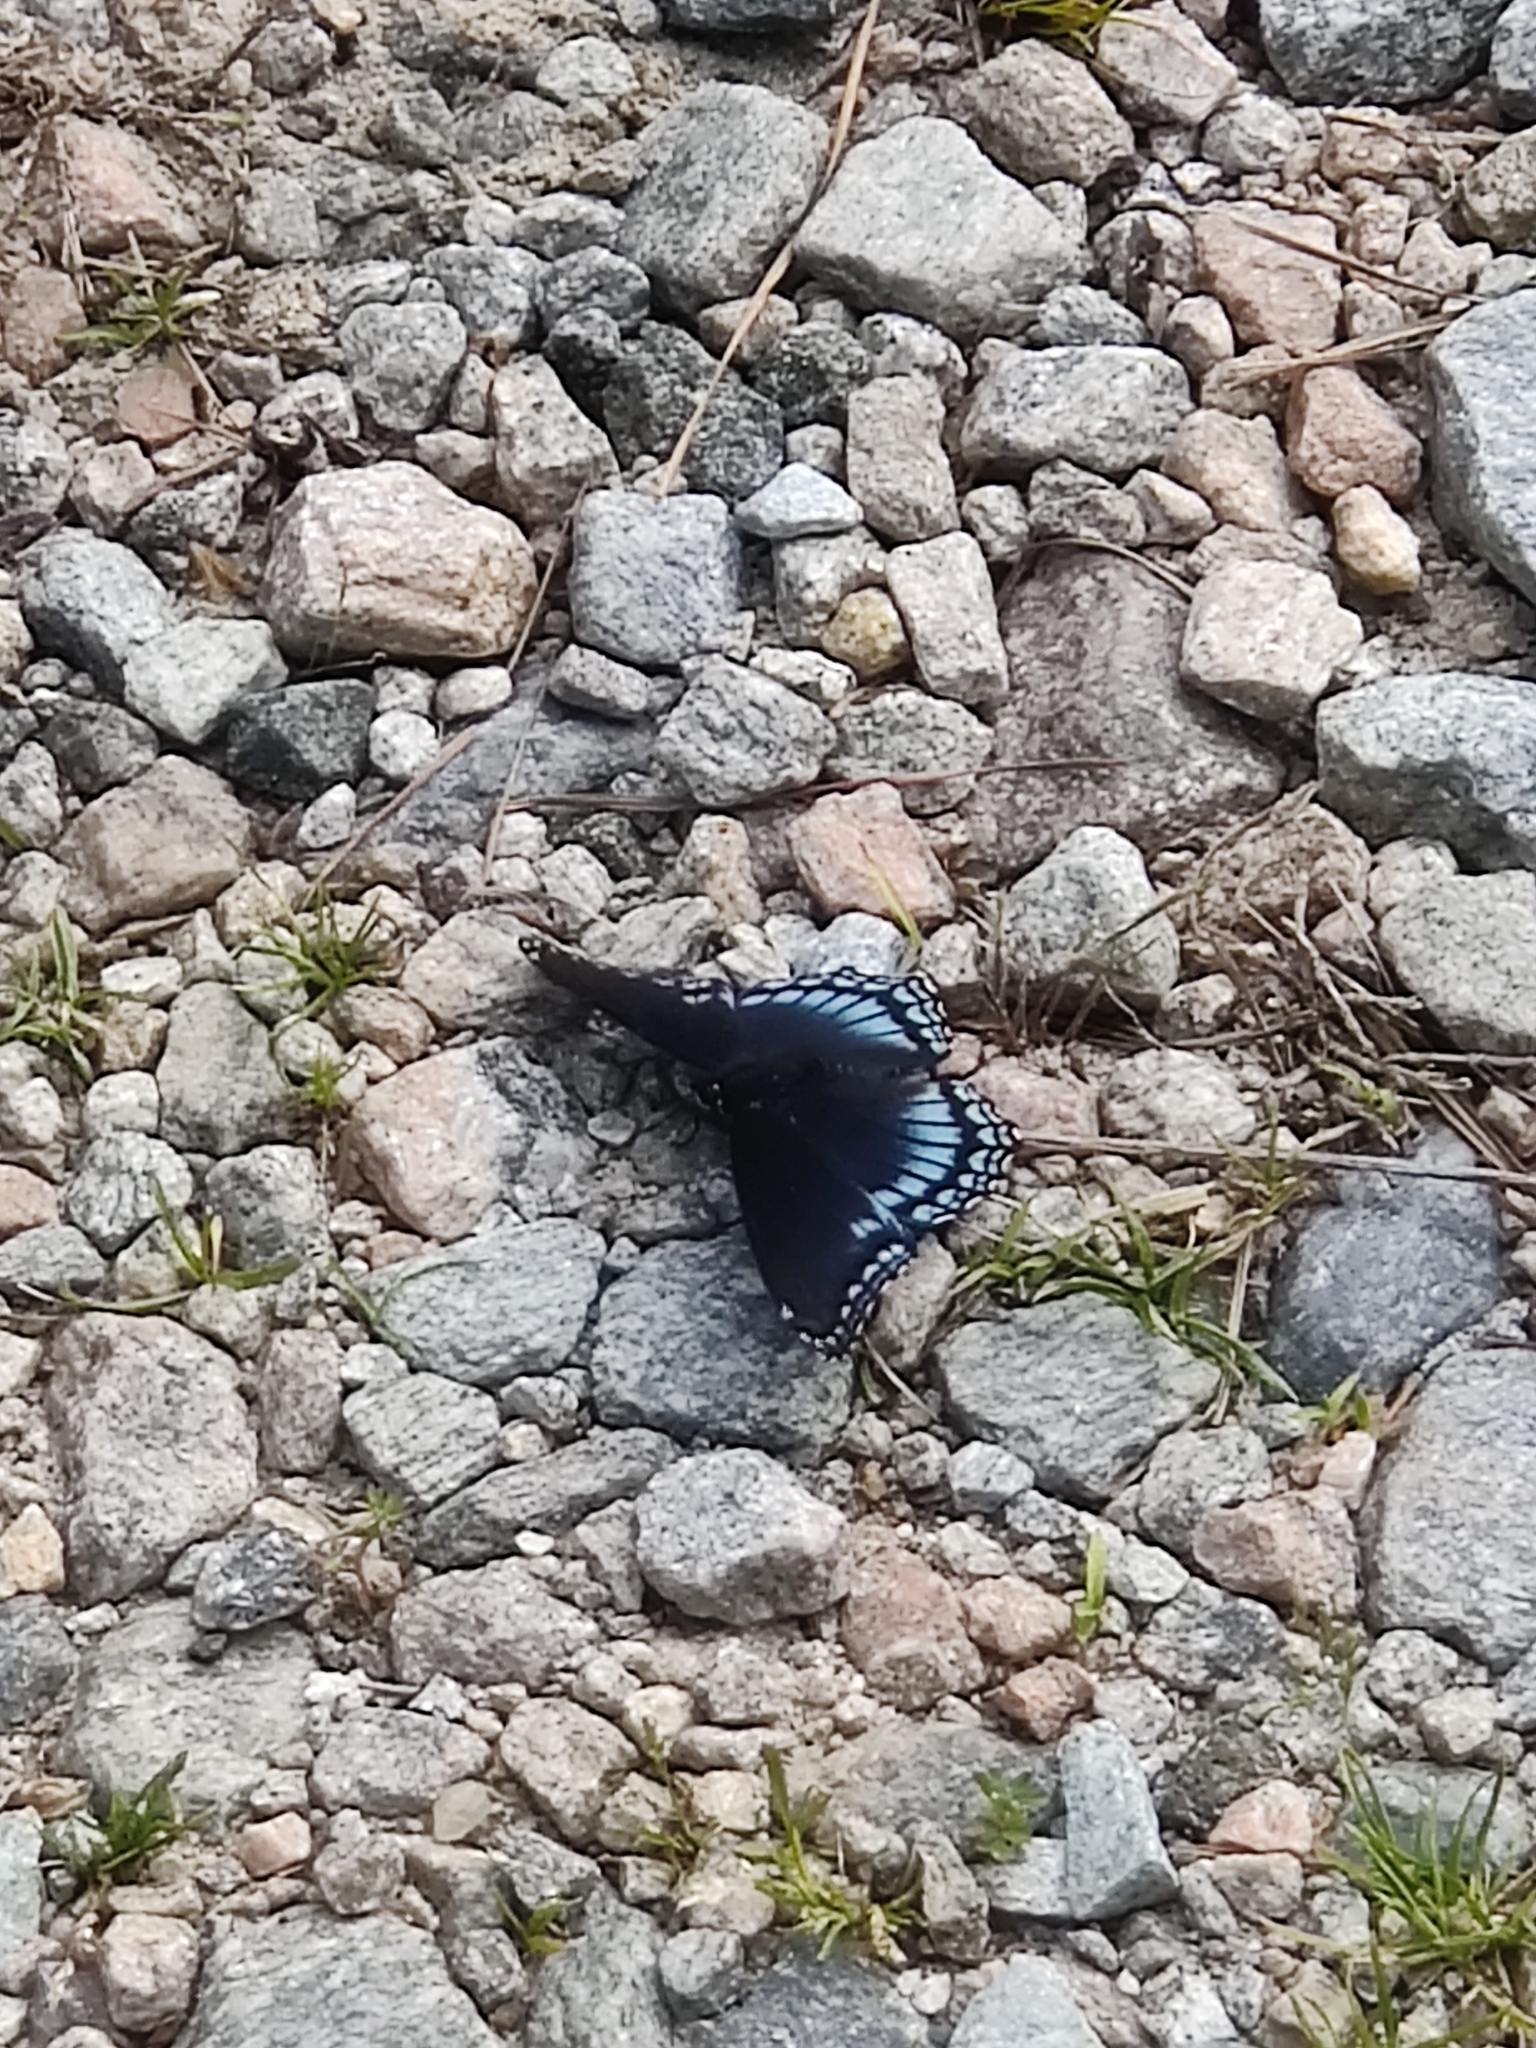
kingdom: Animalia
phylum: Arthropoda
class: Insecta
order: Lepidoptera
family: Nymphalidae
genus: Limenitis
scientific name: Limenitis astyanax
